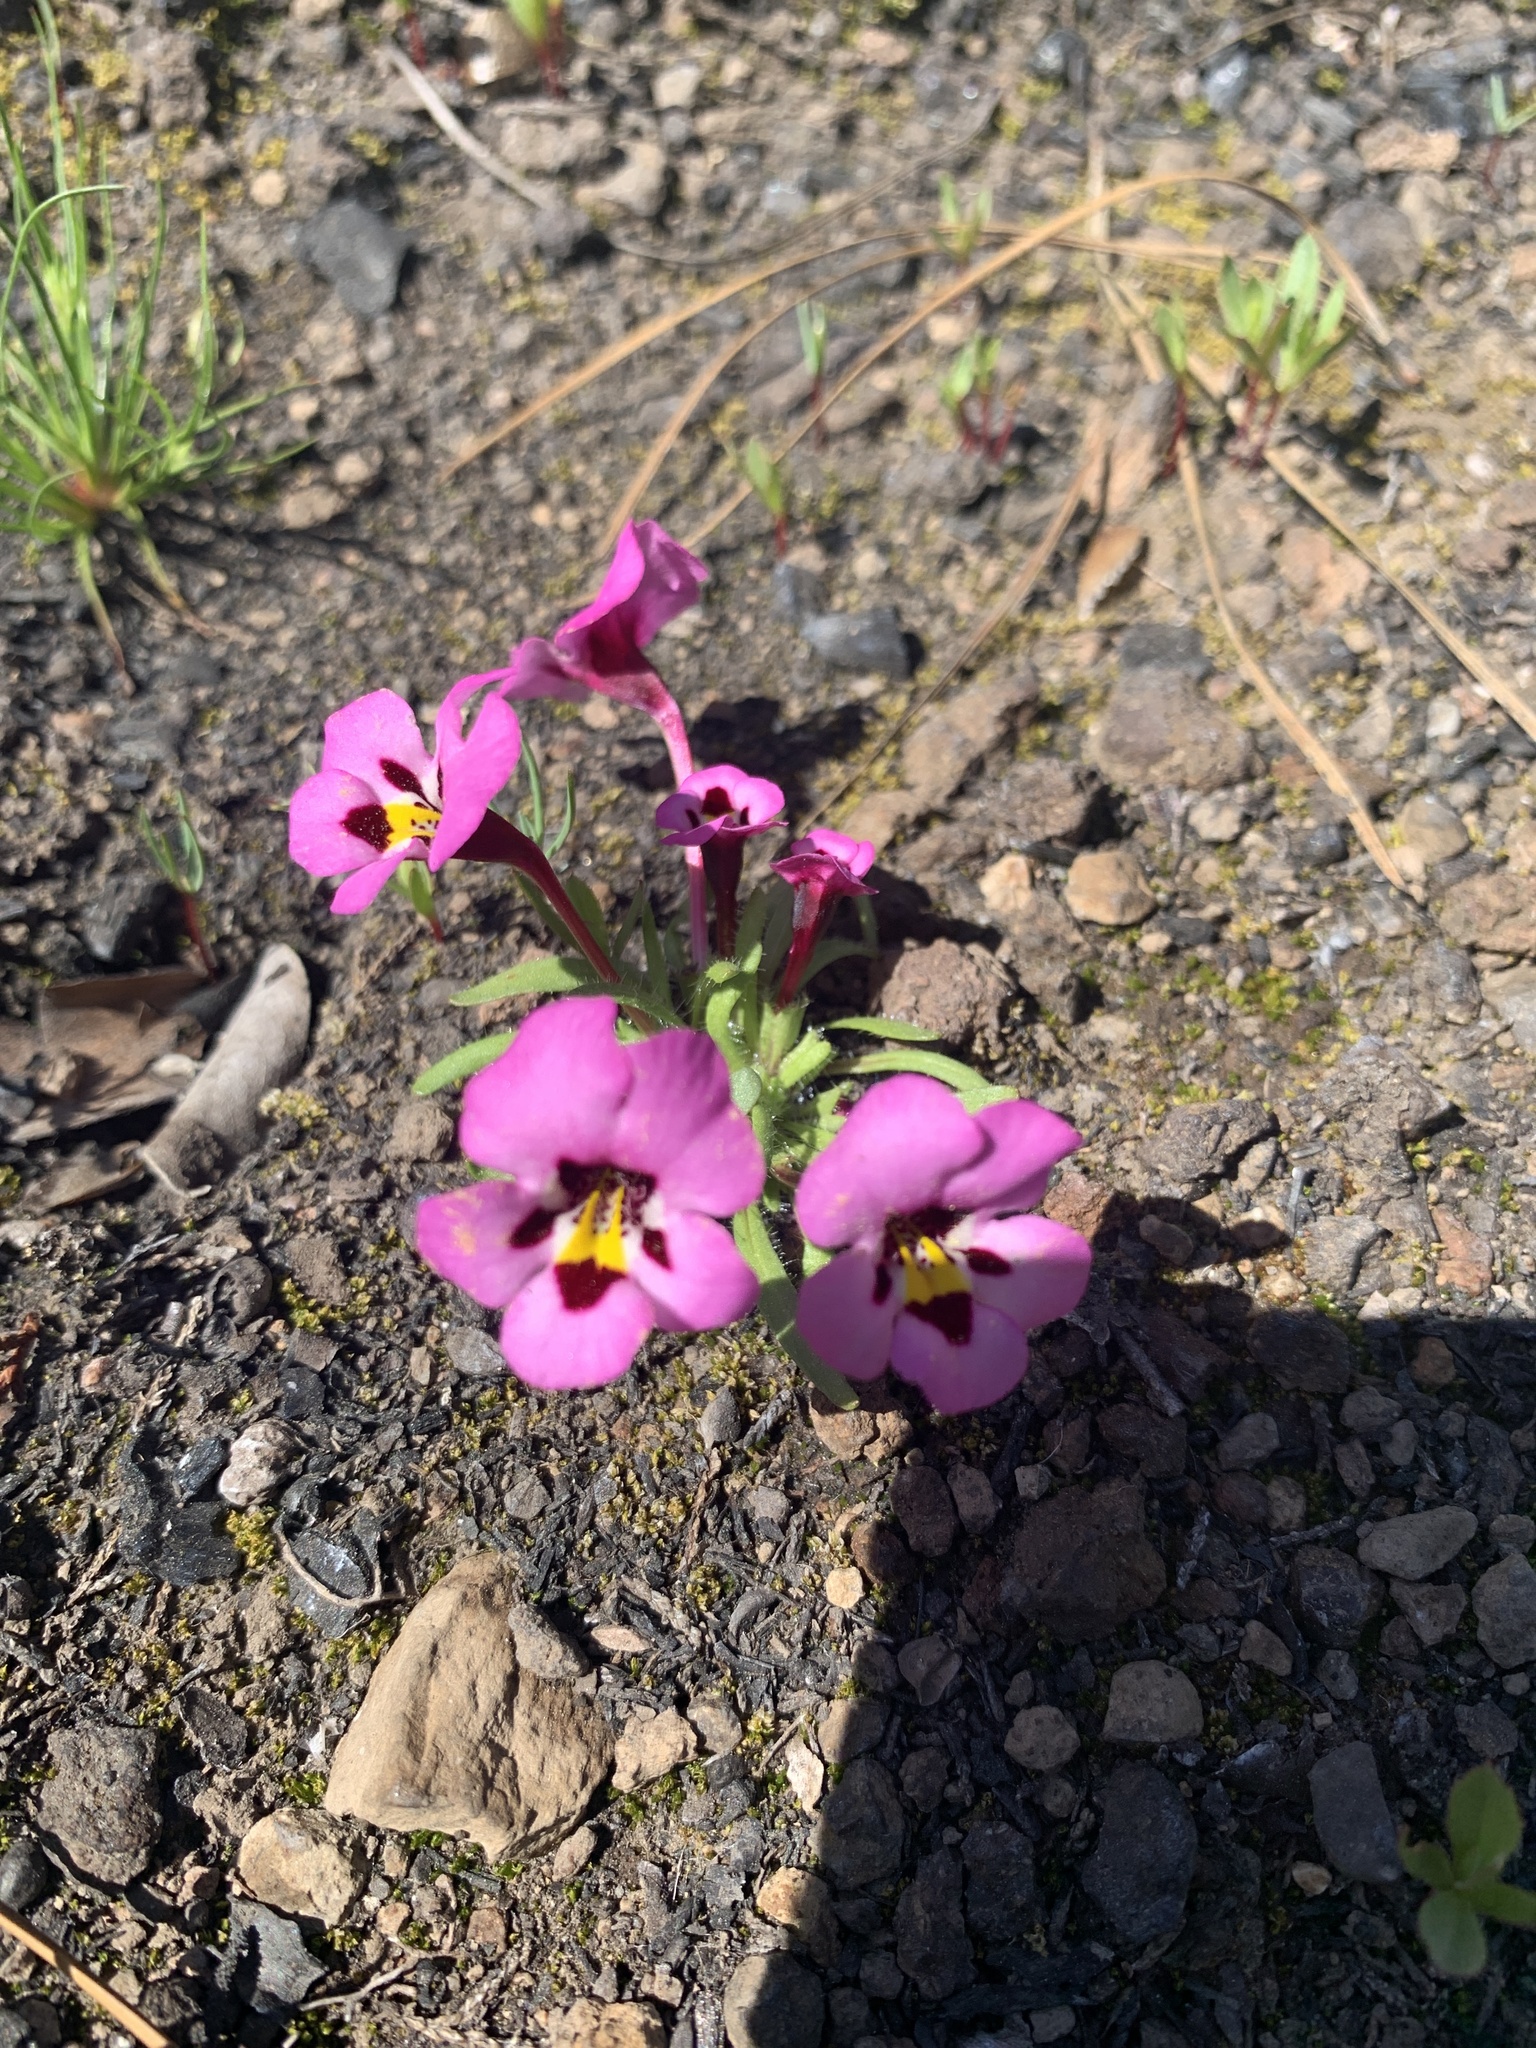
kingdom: Plantae
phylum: Tracheophyta
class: Magnoliopsida
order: Lamiales
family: Phrymaceae
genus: Diplacus
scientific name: Diplacus angustatus
